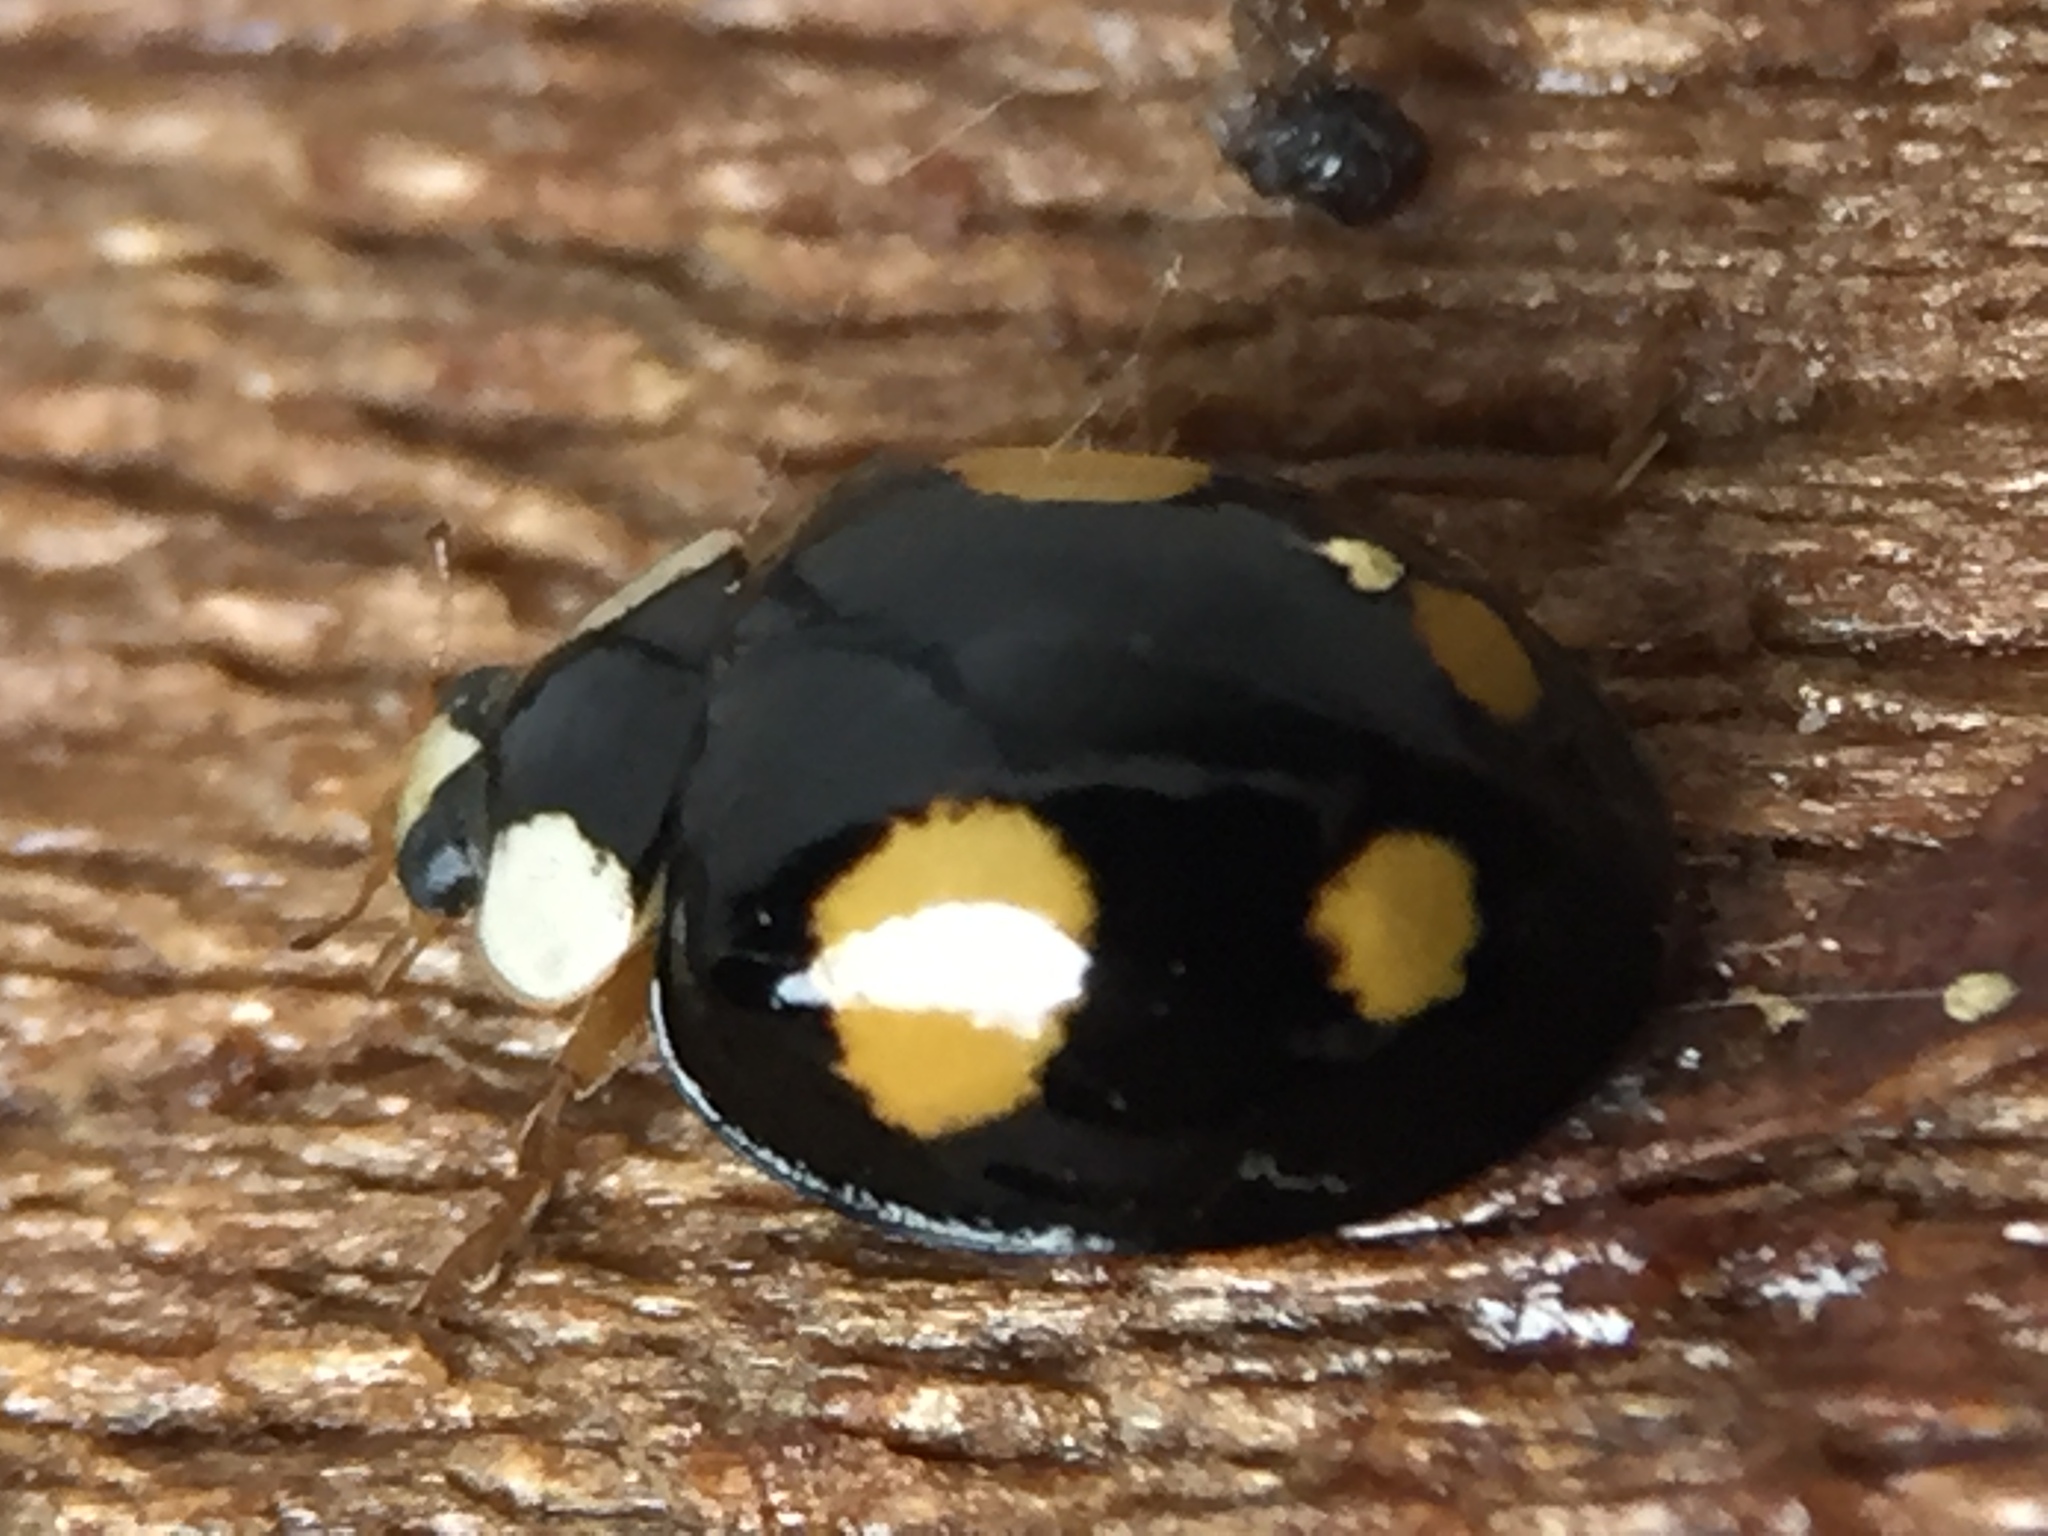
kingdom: Animalia
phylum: Arthropoda
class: Insecta
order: Coleoptera
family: Coccinellidae
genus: Harmonia
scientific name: Harmonia axyridis
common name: Harlequin ladybird
